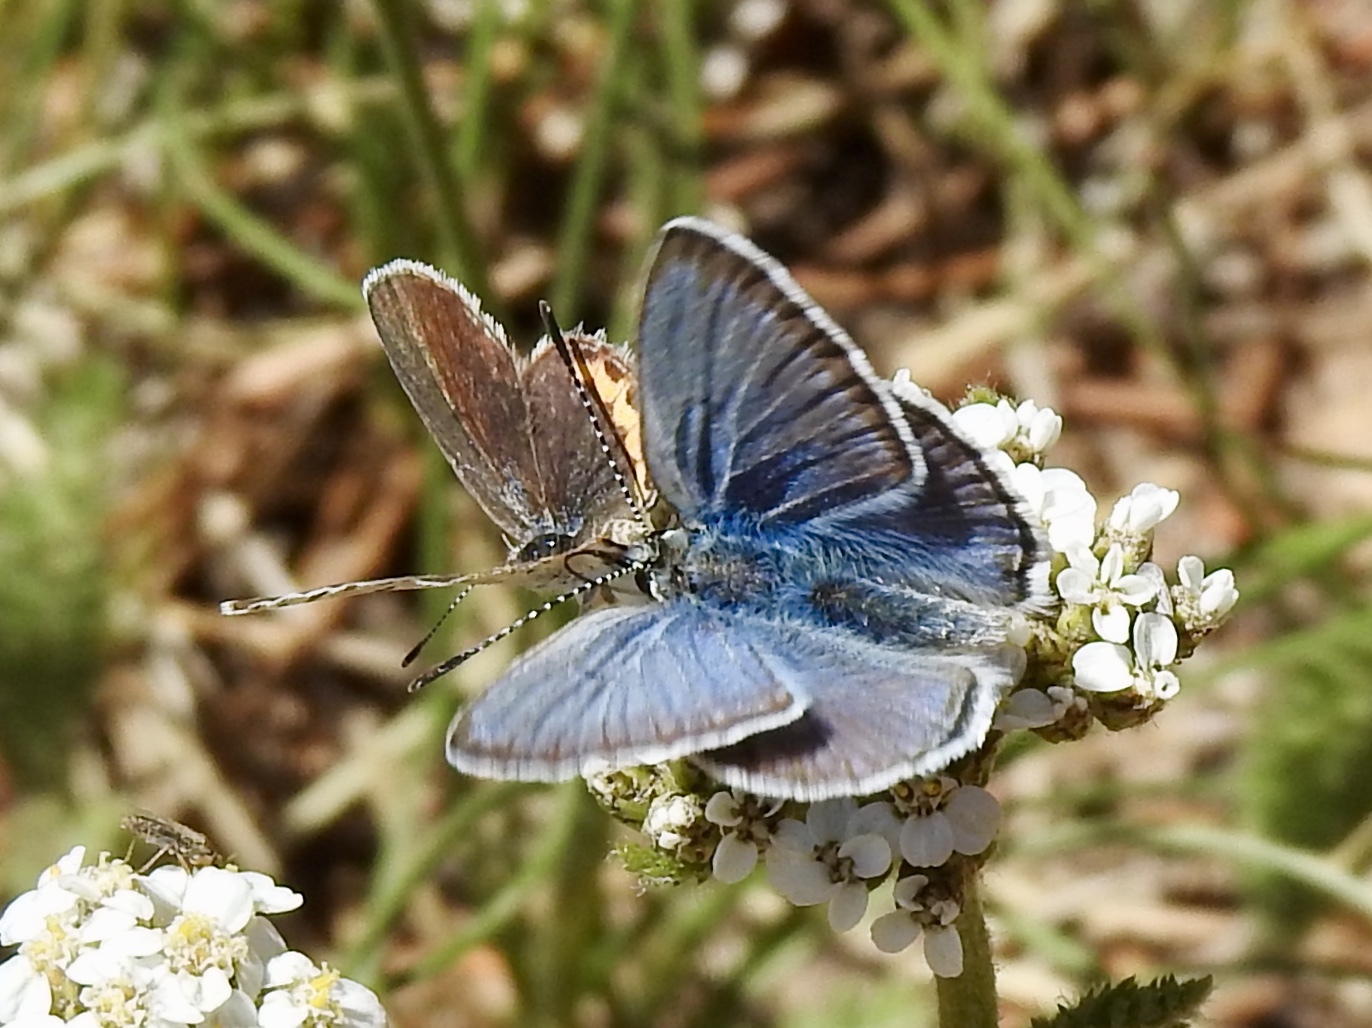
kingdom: Animalia
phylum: Arthropoda
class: Insecta
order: Lepidoptera
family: Lycaenidae
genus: Lycaeides
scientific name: Lycaeides melissa
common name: Melissa blue
